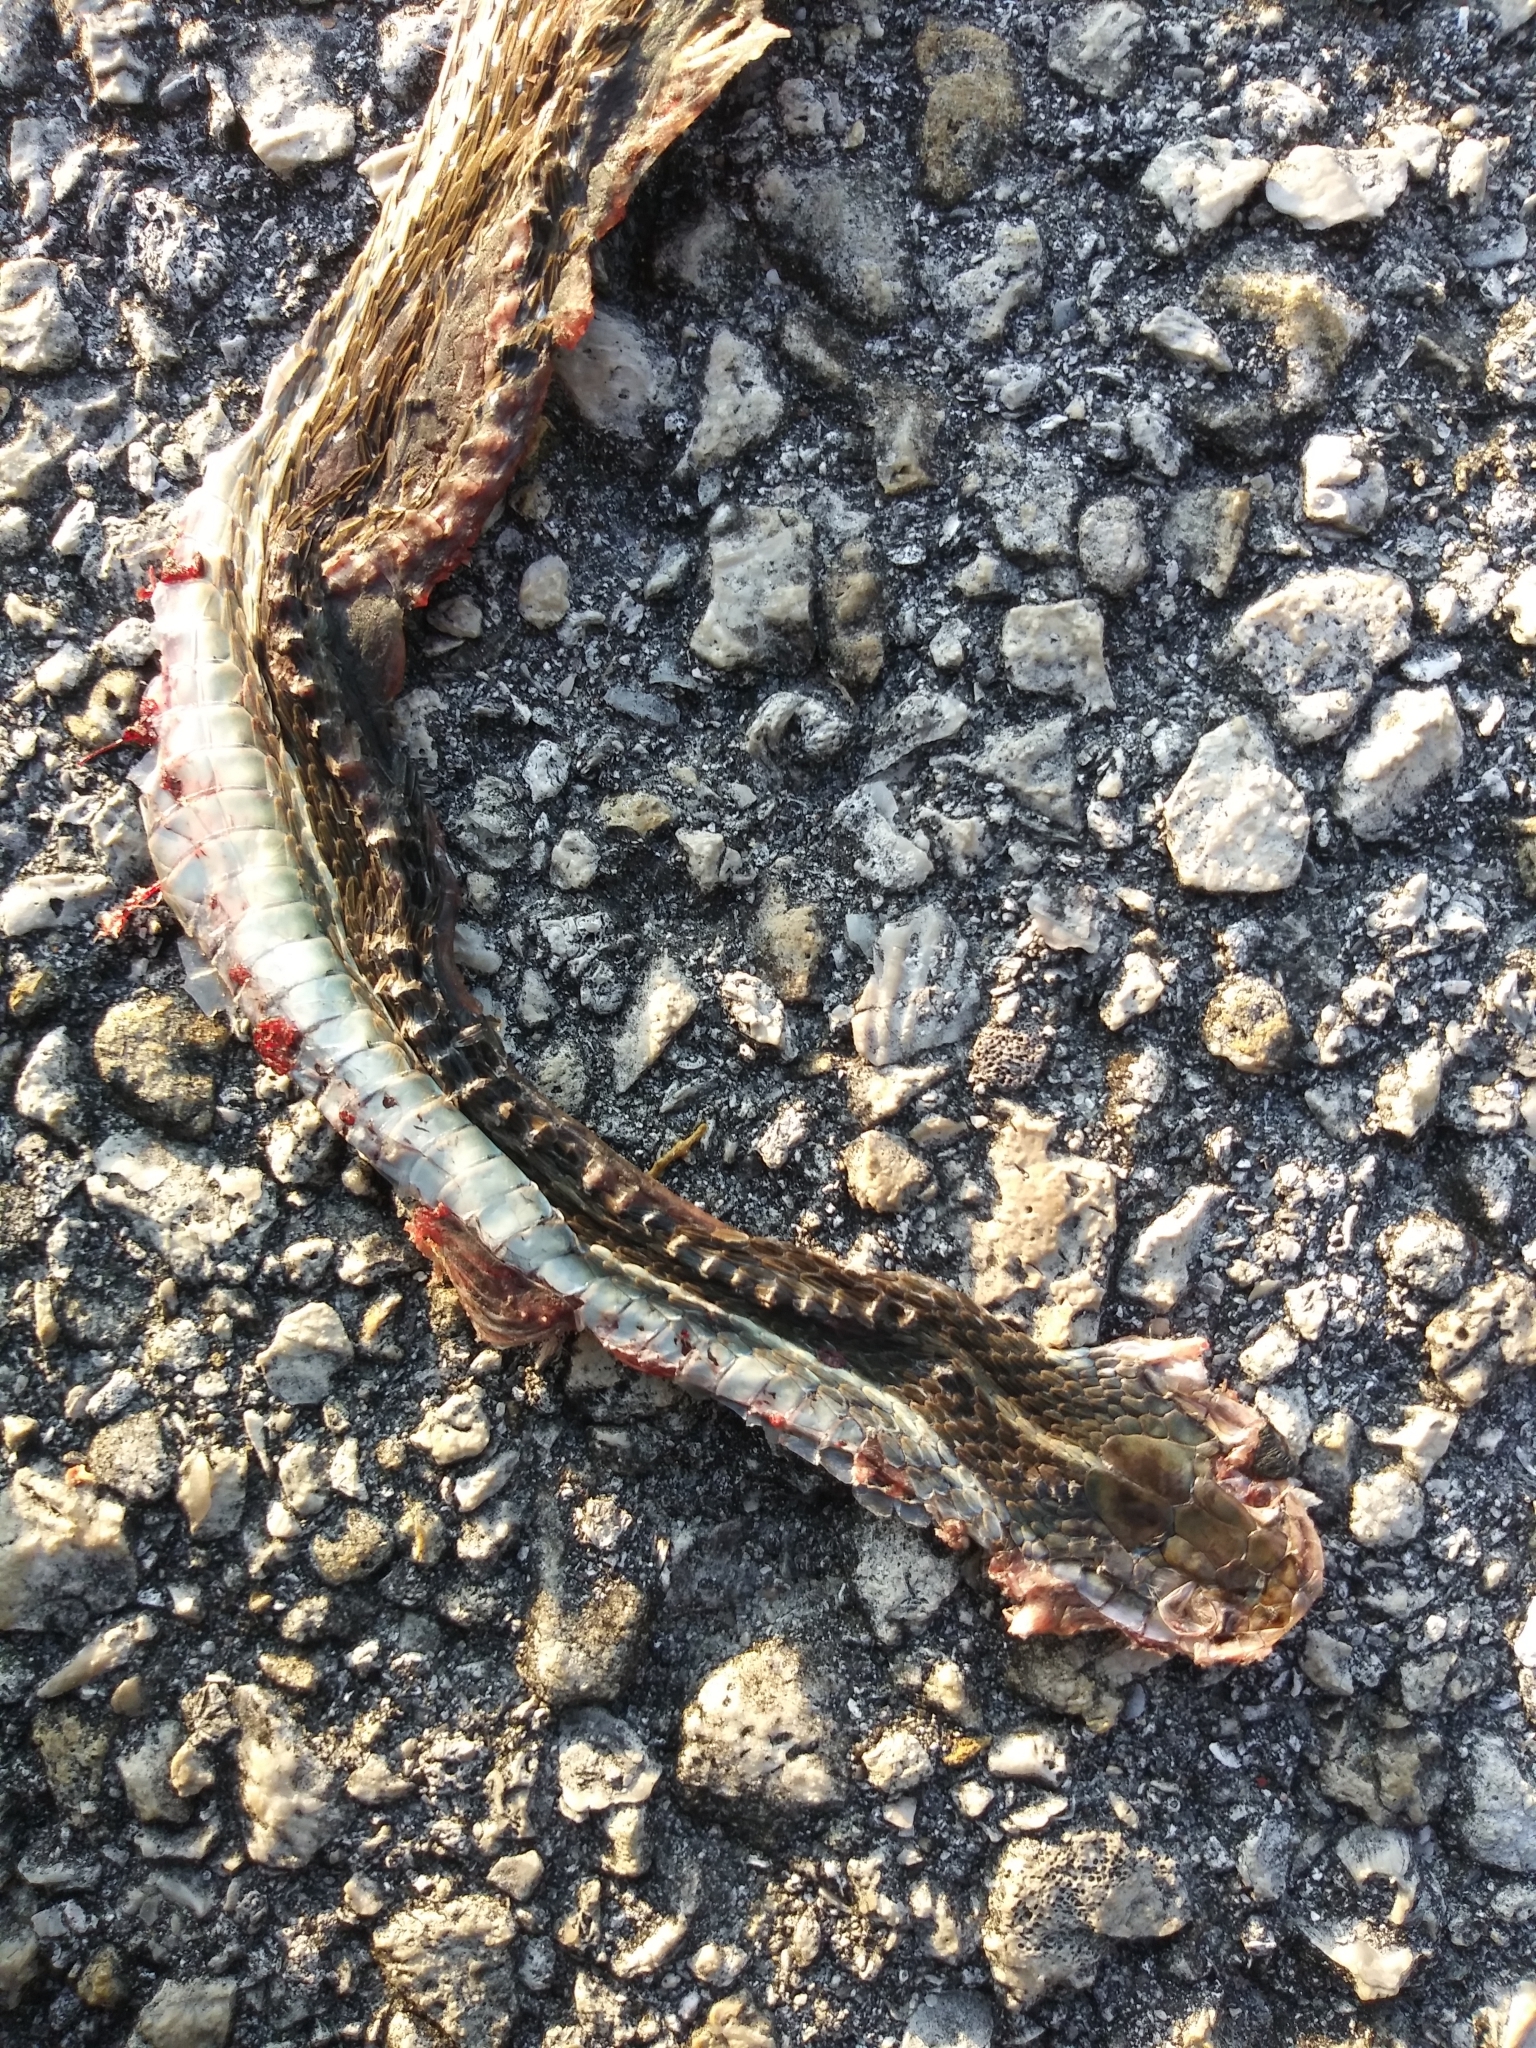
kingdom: Animalia
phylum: Chordata
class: Squamata
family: Colubridae
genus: Thamnophis
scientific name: Thamnophis saurita
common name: Eastern ribbonsnake
